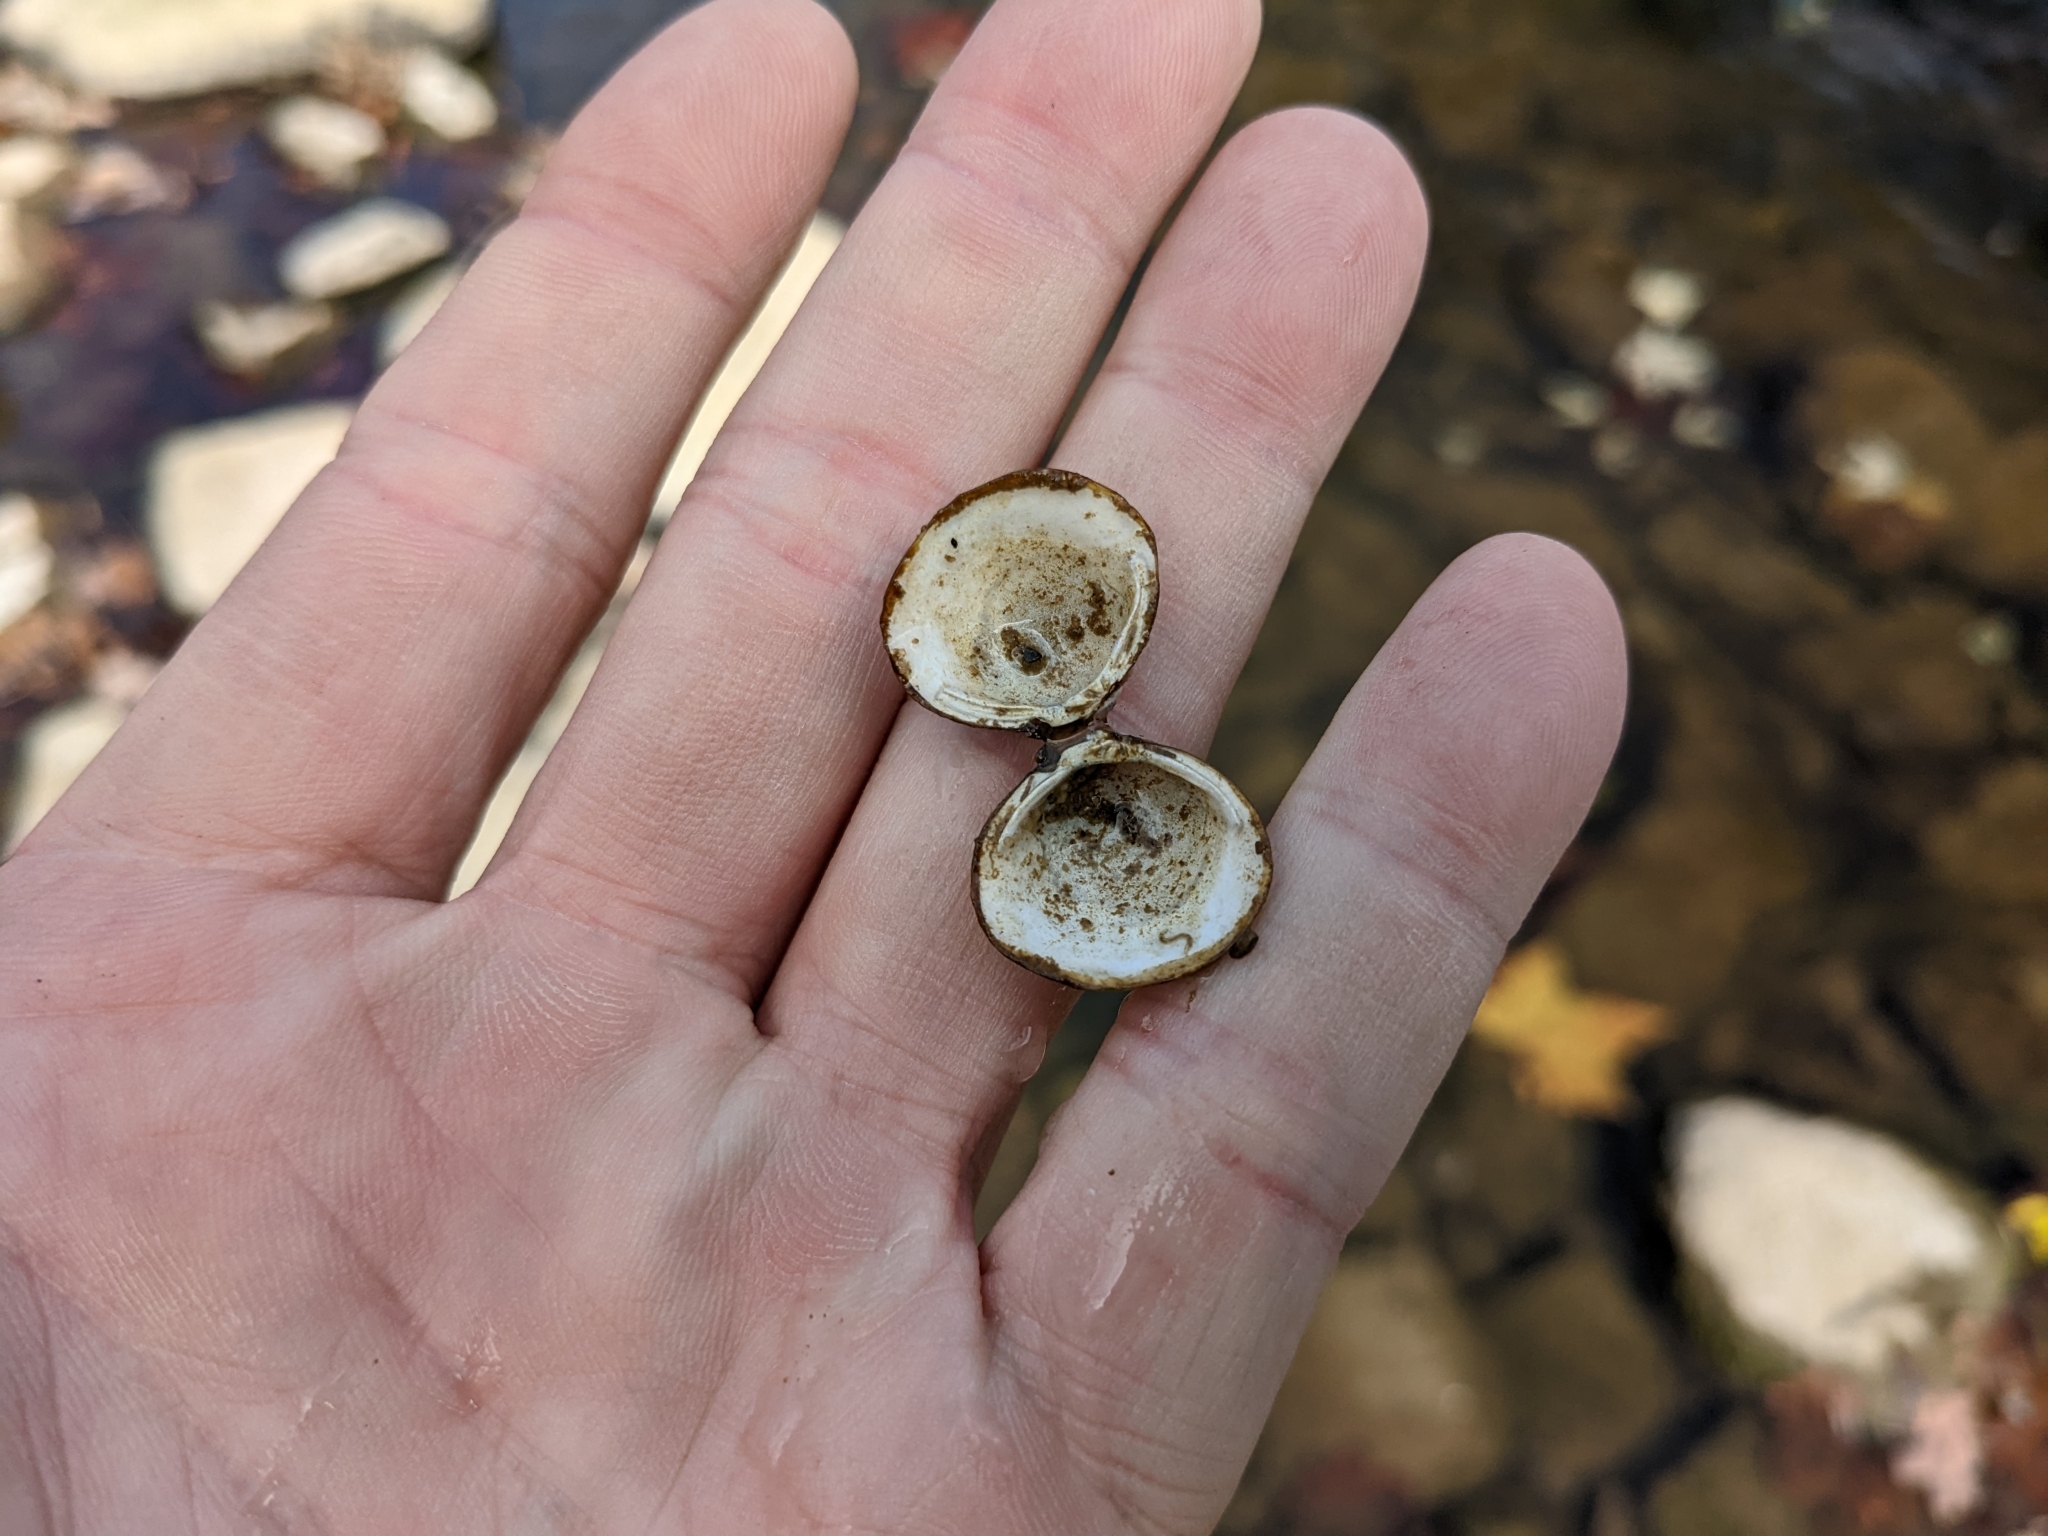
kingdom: Animalia
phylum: Mollusca
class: Bivalvia
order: Venerida
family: Cyrenidae
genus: Corbicula
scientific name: Corbicula fluminea
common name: Asian clam
